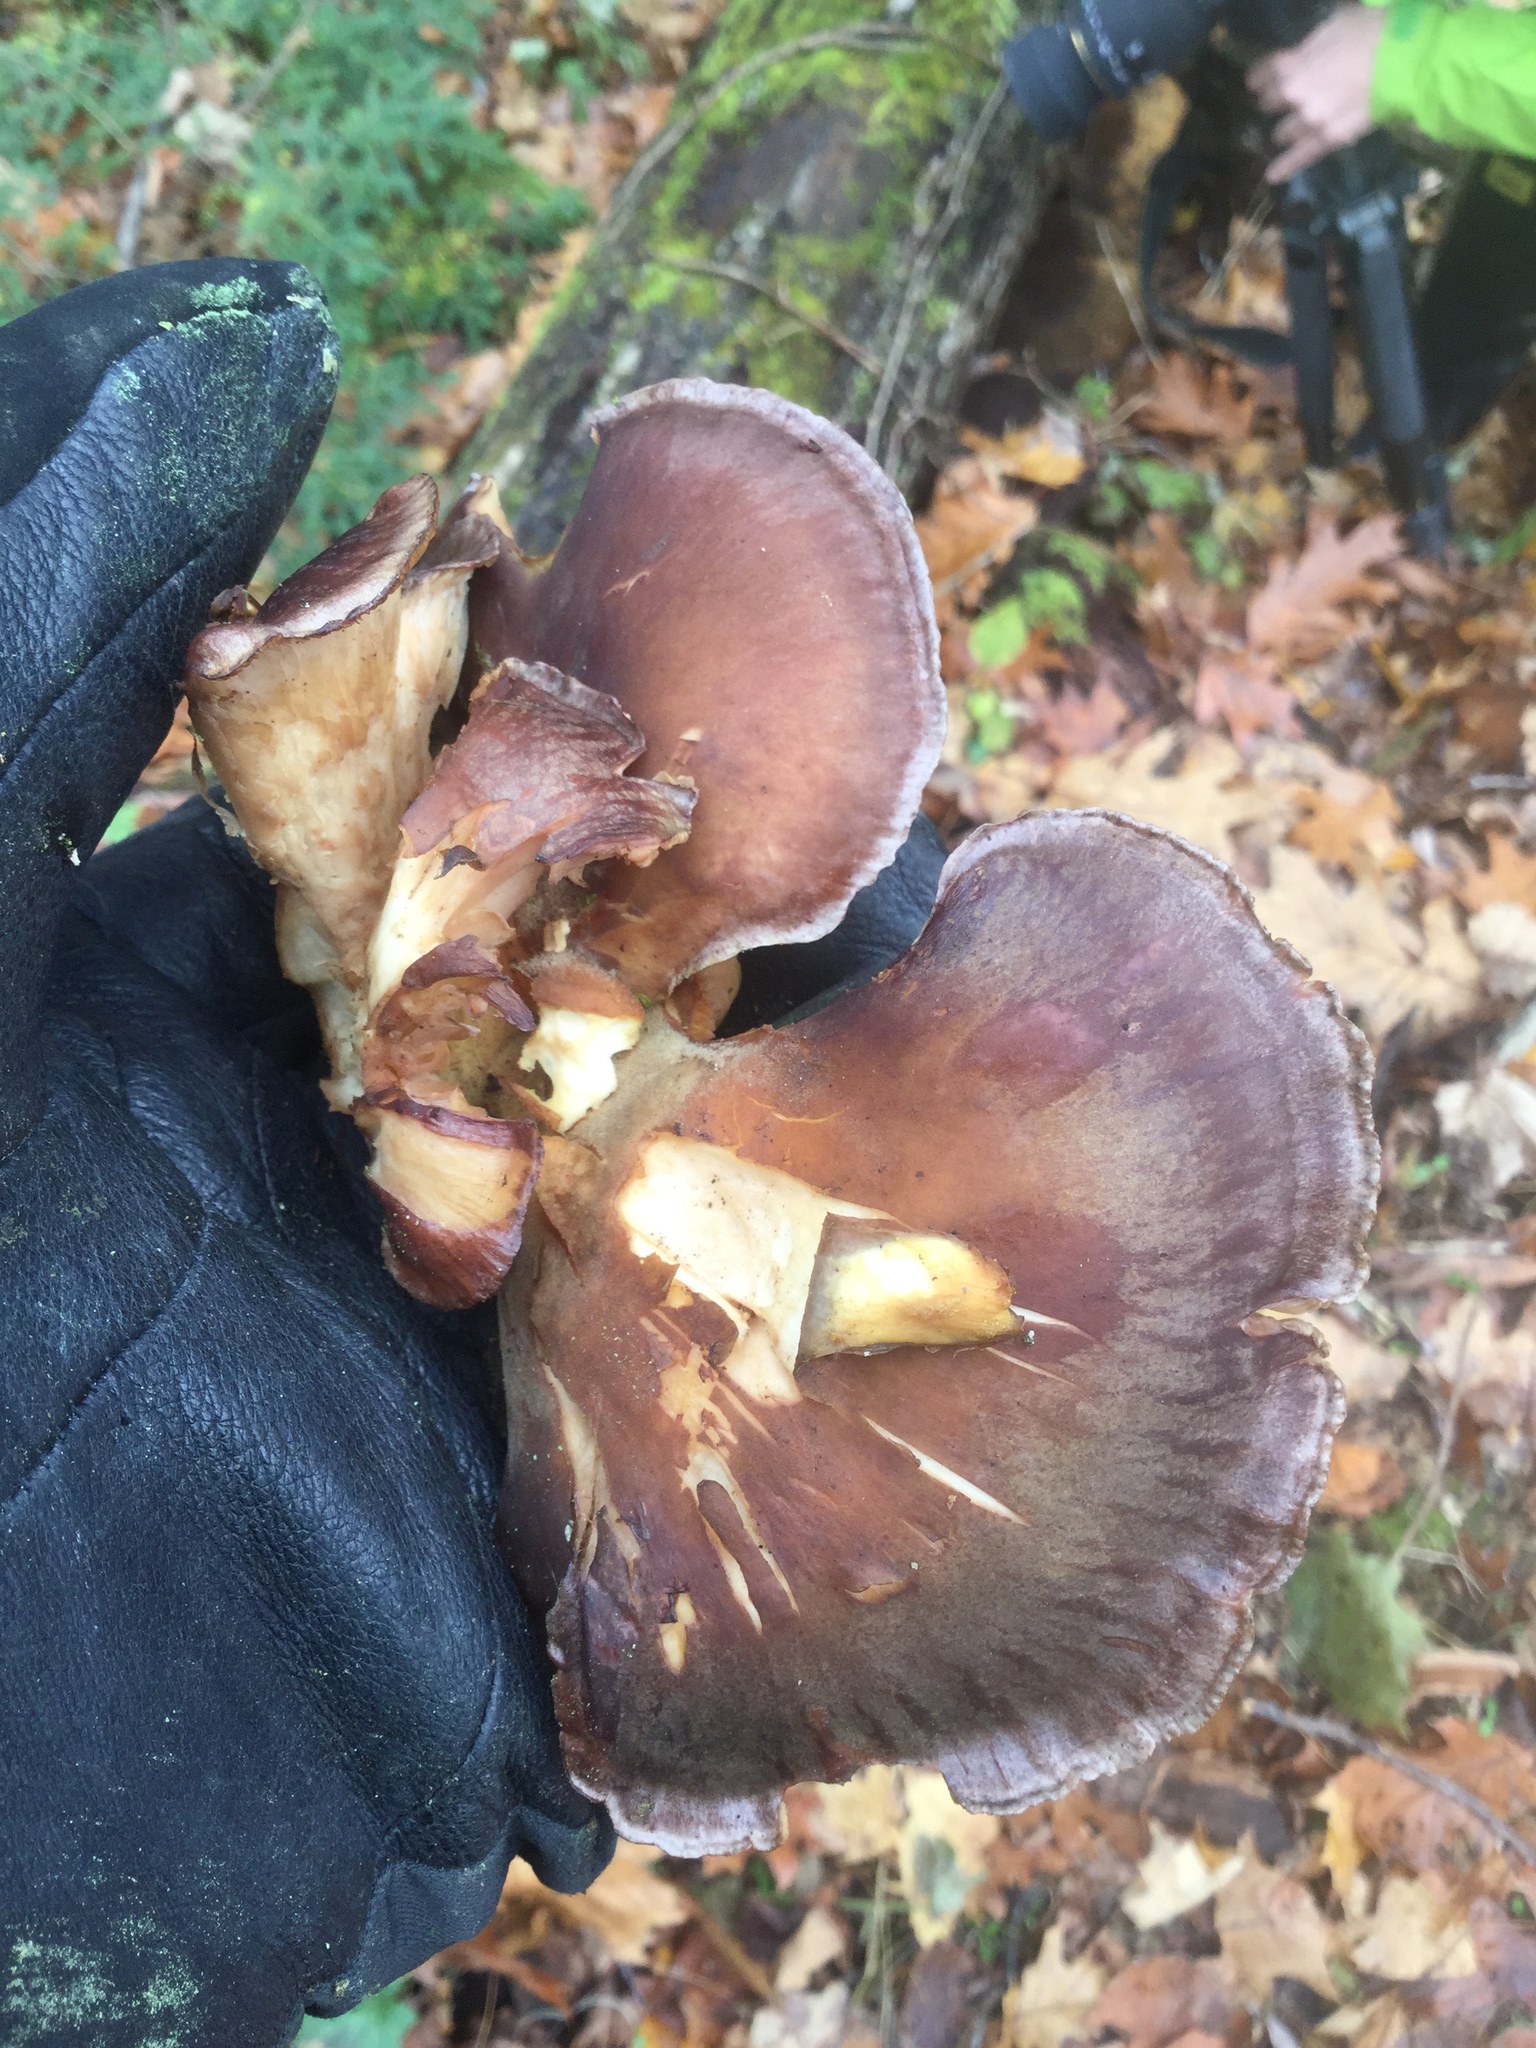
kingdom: Fungi
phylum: Basidiomycota
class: Agaricomycetes
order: Agaricales
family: Sarcomyxaceae
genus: Sarcomyxa
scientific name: Sarcomyxa serotina
